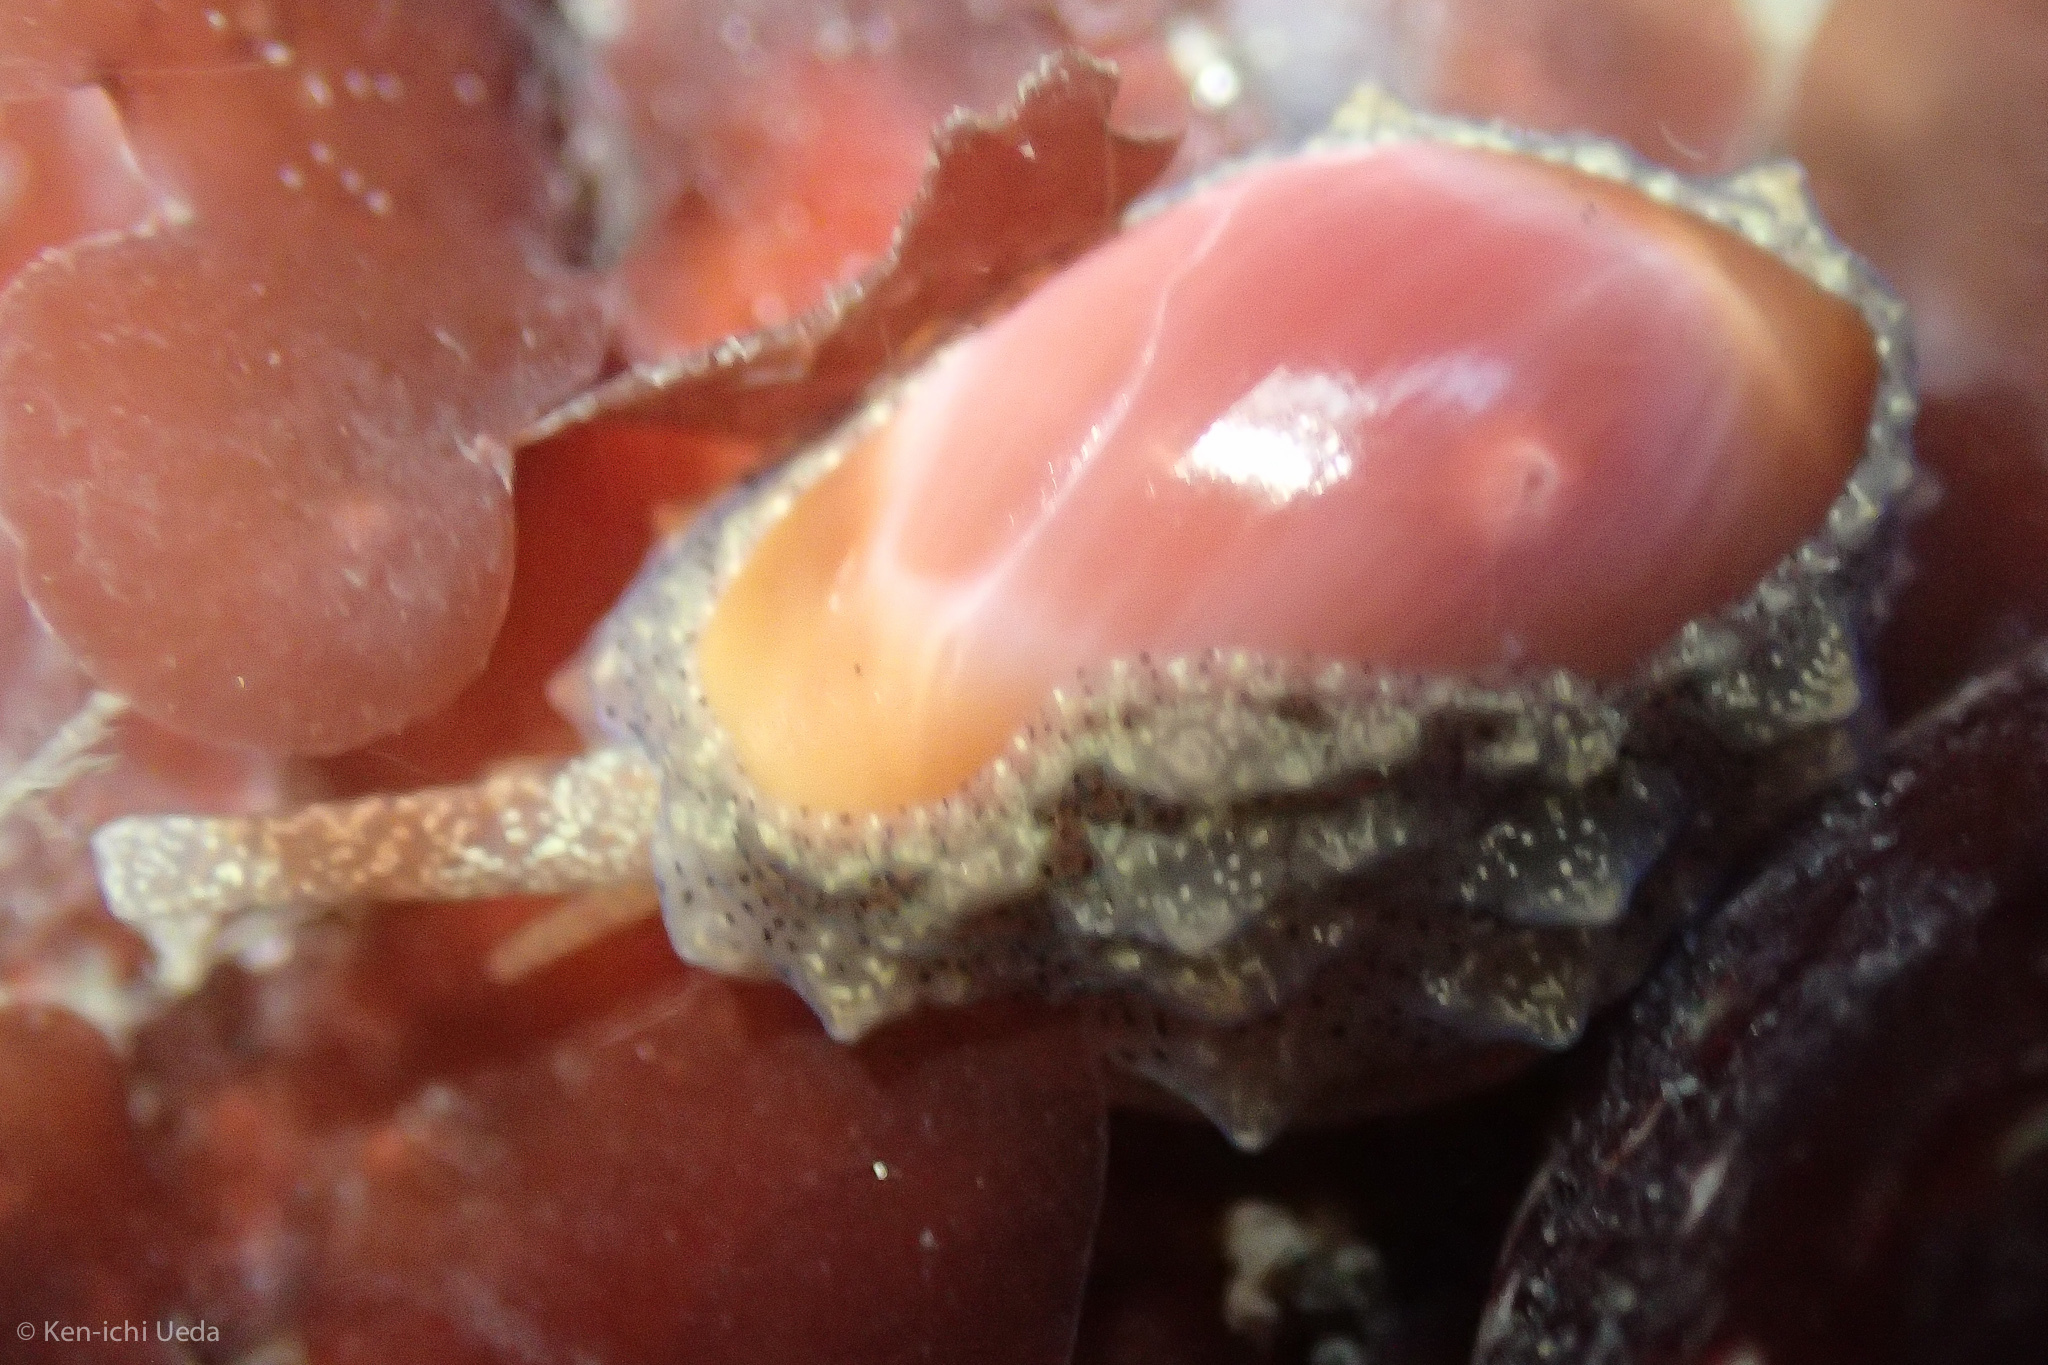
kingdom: Animalia
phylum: Mollusca
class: Gastropoda
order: Littorinimorpha
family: Eratoidae
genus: Hespererato
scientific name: Hespererato vitellina
